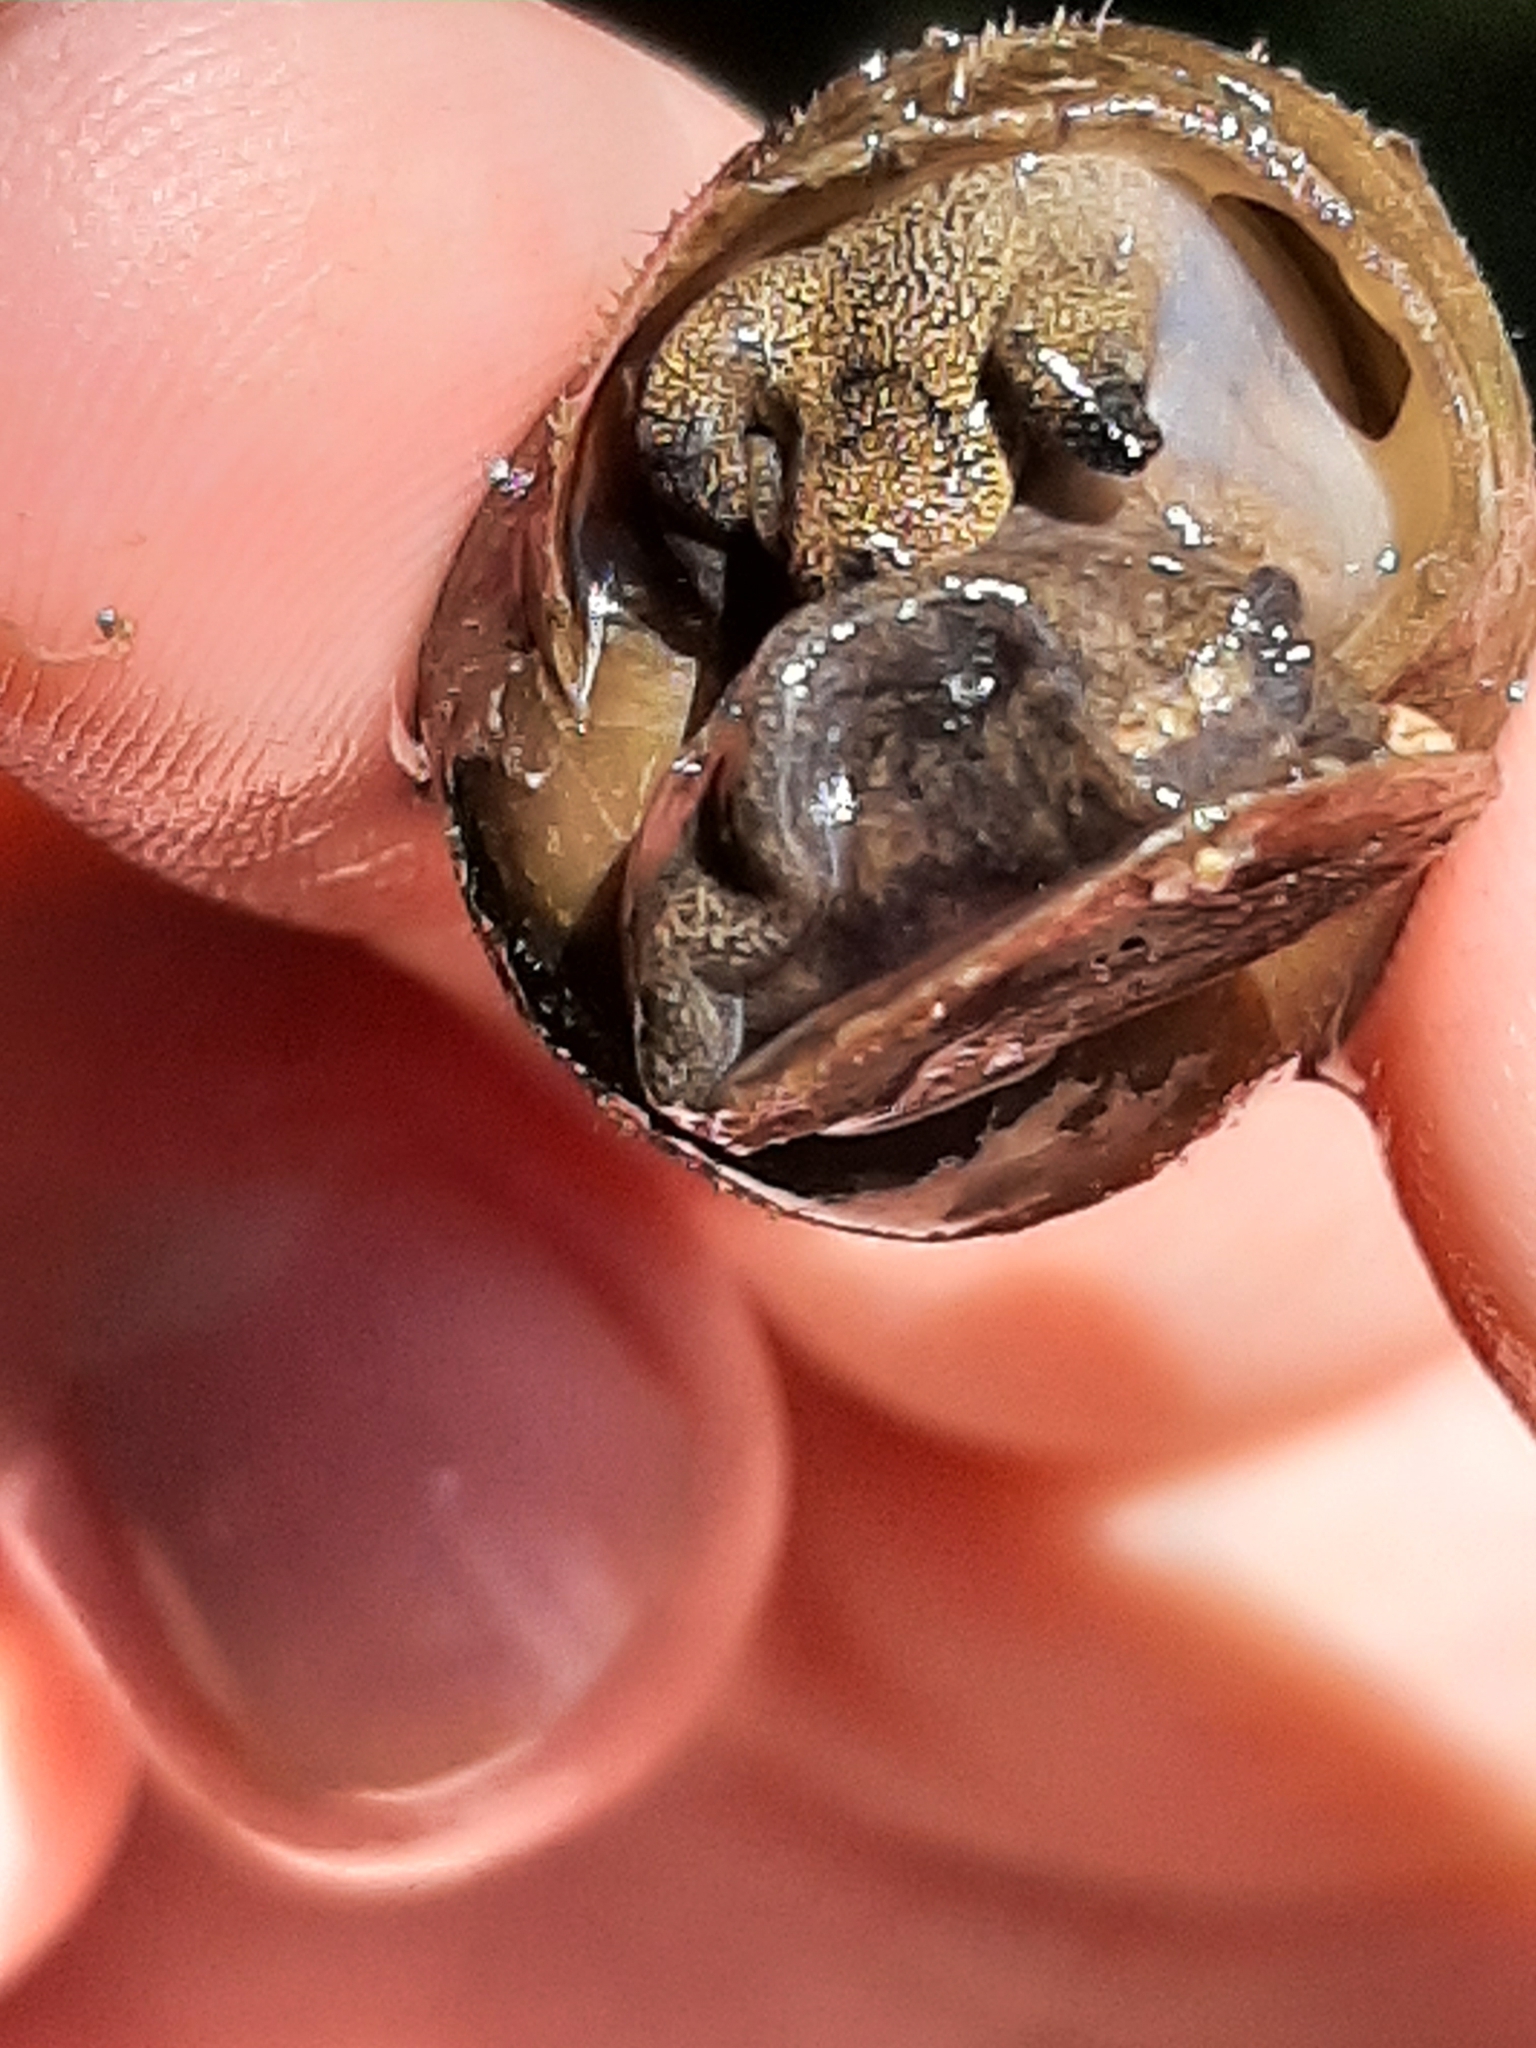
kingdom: Animalia
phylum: Mollusca
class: Gastropoda
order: Architaenioglossa
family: Viviparidae
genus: Cipangopaludina
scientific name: Cipangopaludina chinensis
